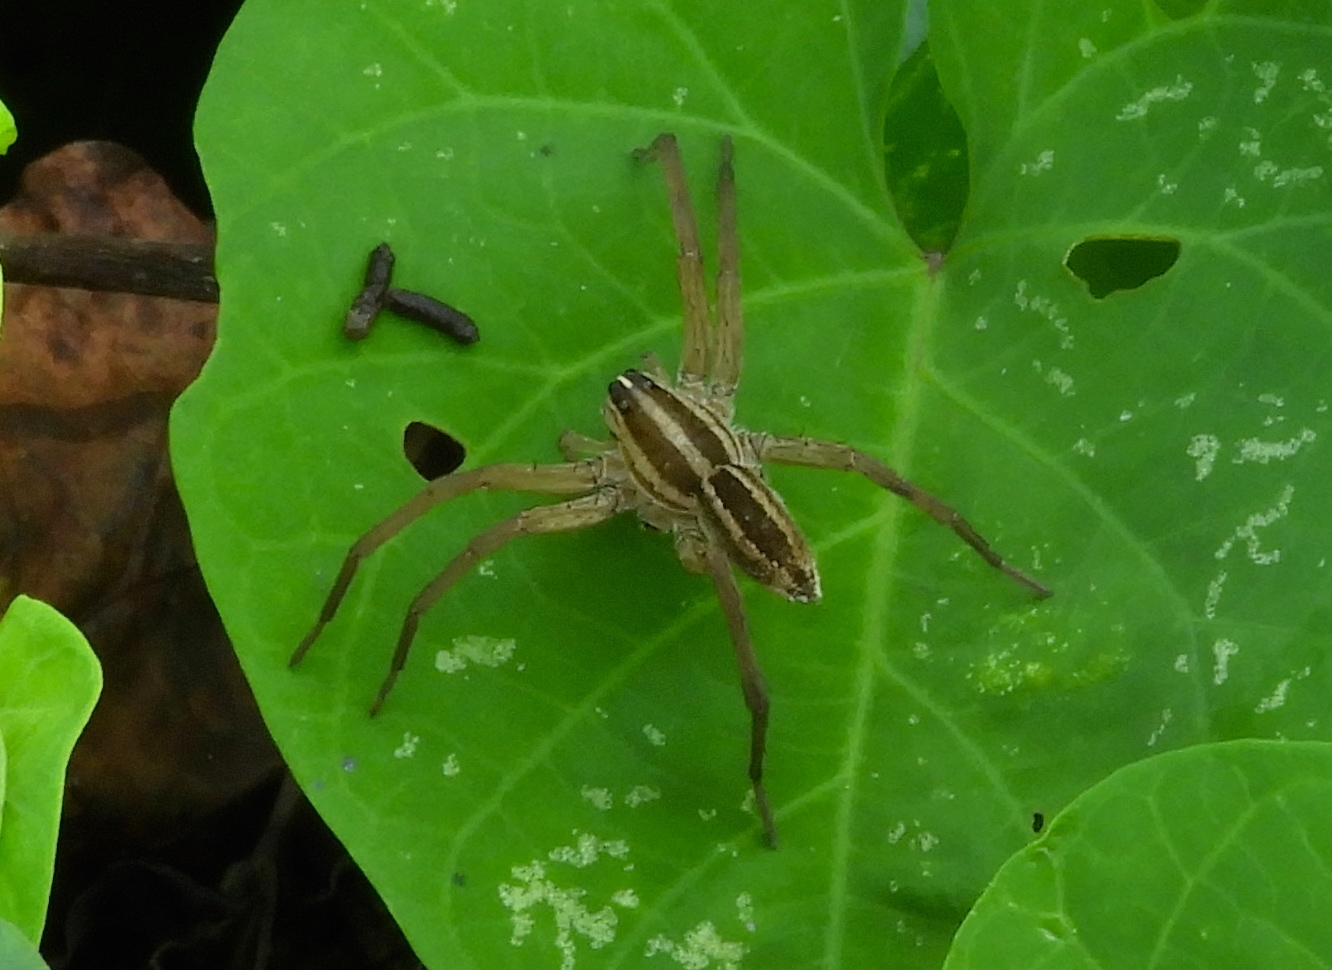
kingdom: Animalia
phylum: Arthropoda
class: Arachnida
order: Araneae
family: Lycosidae
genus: Rabidosa
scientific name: Rabidosa
